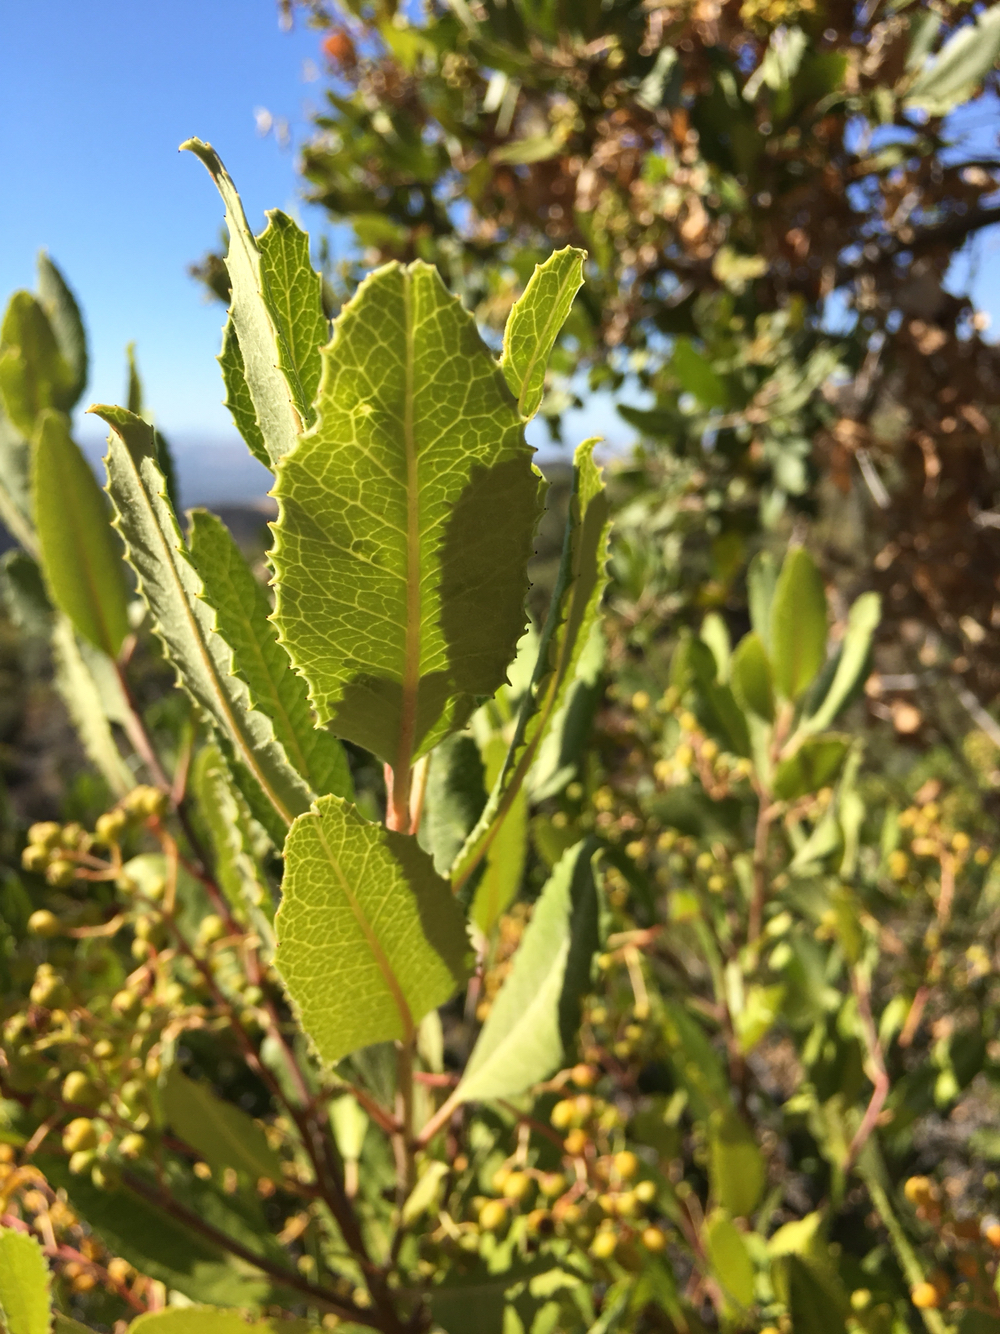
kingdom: Plantae
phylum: Tracheophyta
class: Magnoliopsida
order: Rosales
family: Rosaceae
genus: Heteromeles
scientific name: Heteromeles arbutifolia
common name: California-holly
